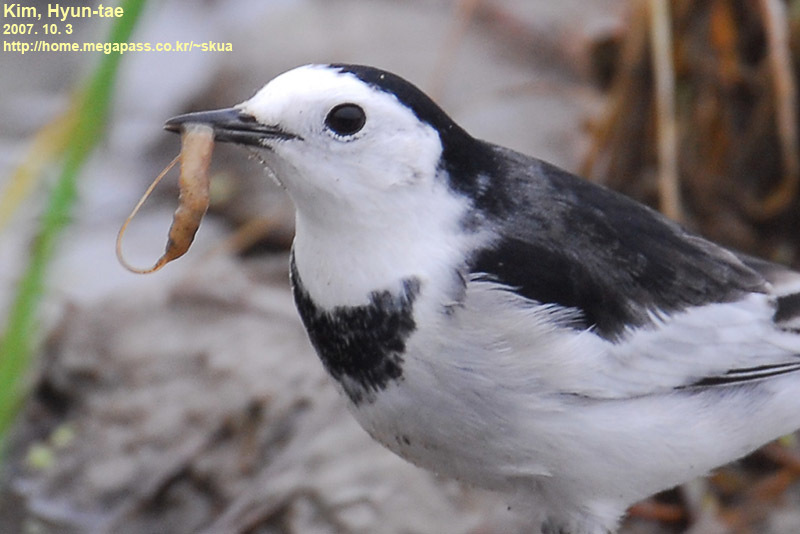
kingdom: Animalia
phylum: Chordata
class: Aves
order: Passeriformes
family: Motacillidae
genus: Motacilla
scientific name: Motacilla alba
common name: White wagtail
